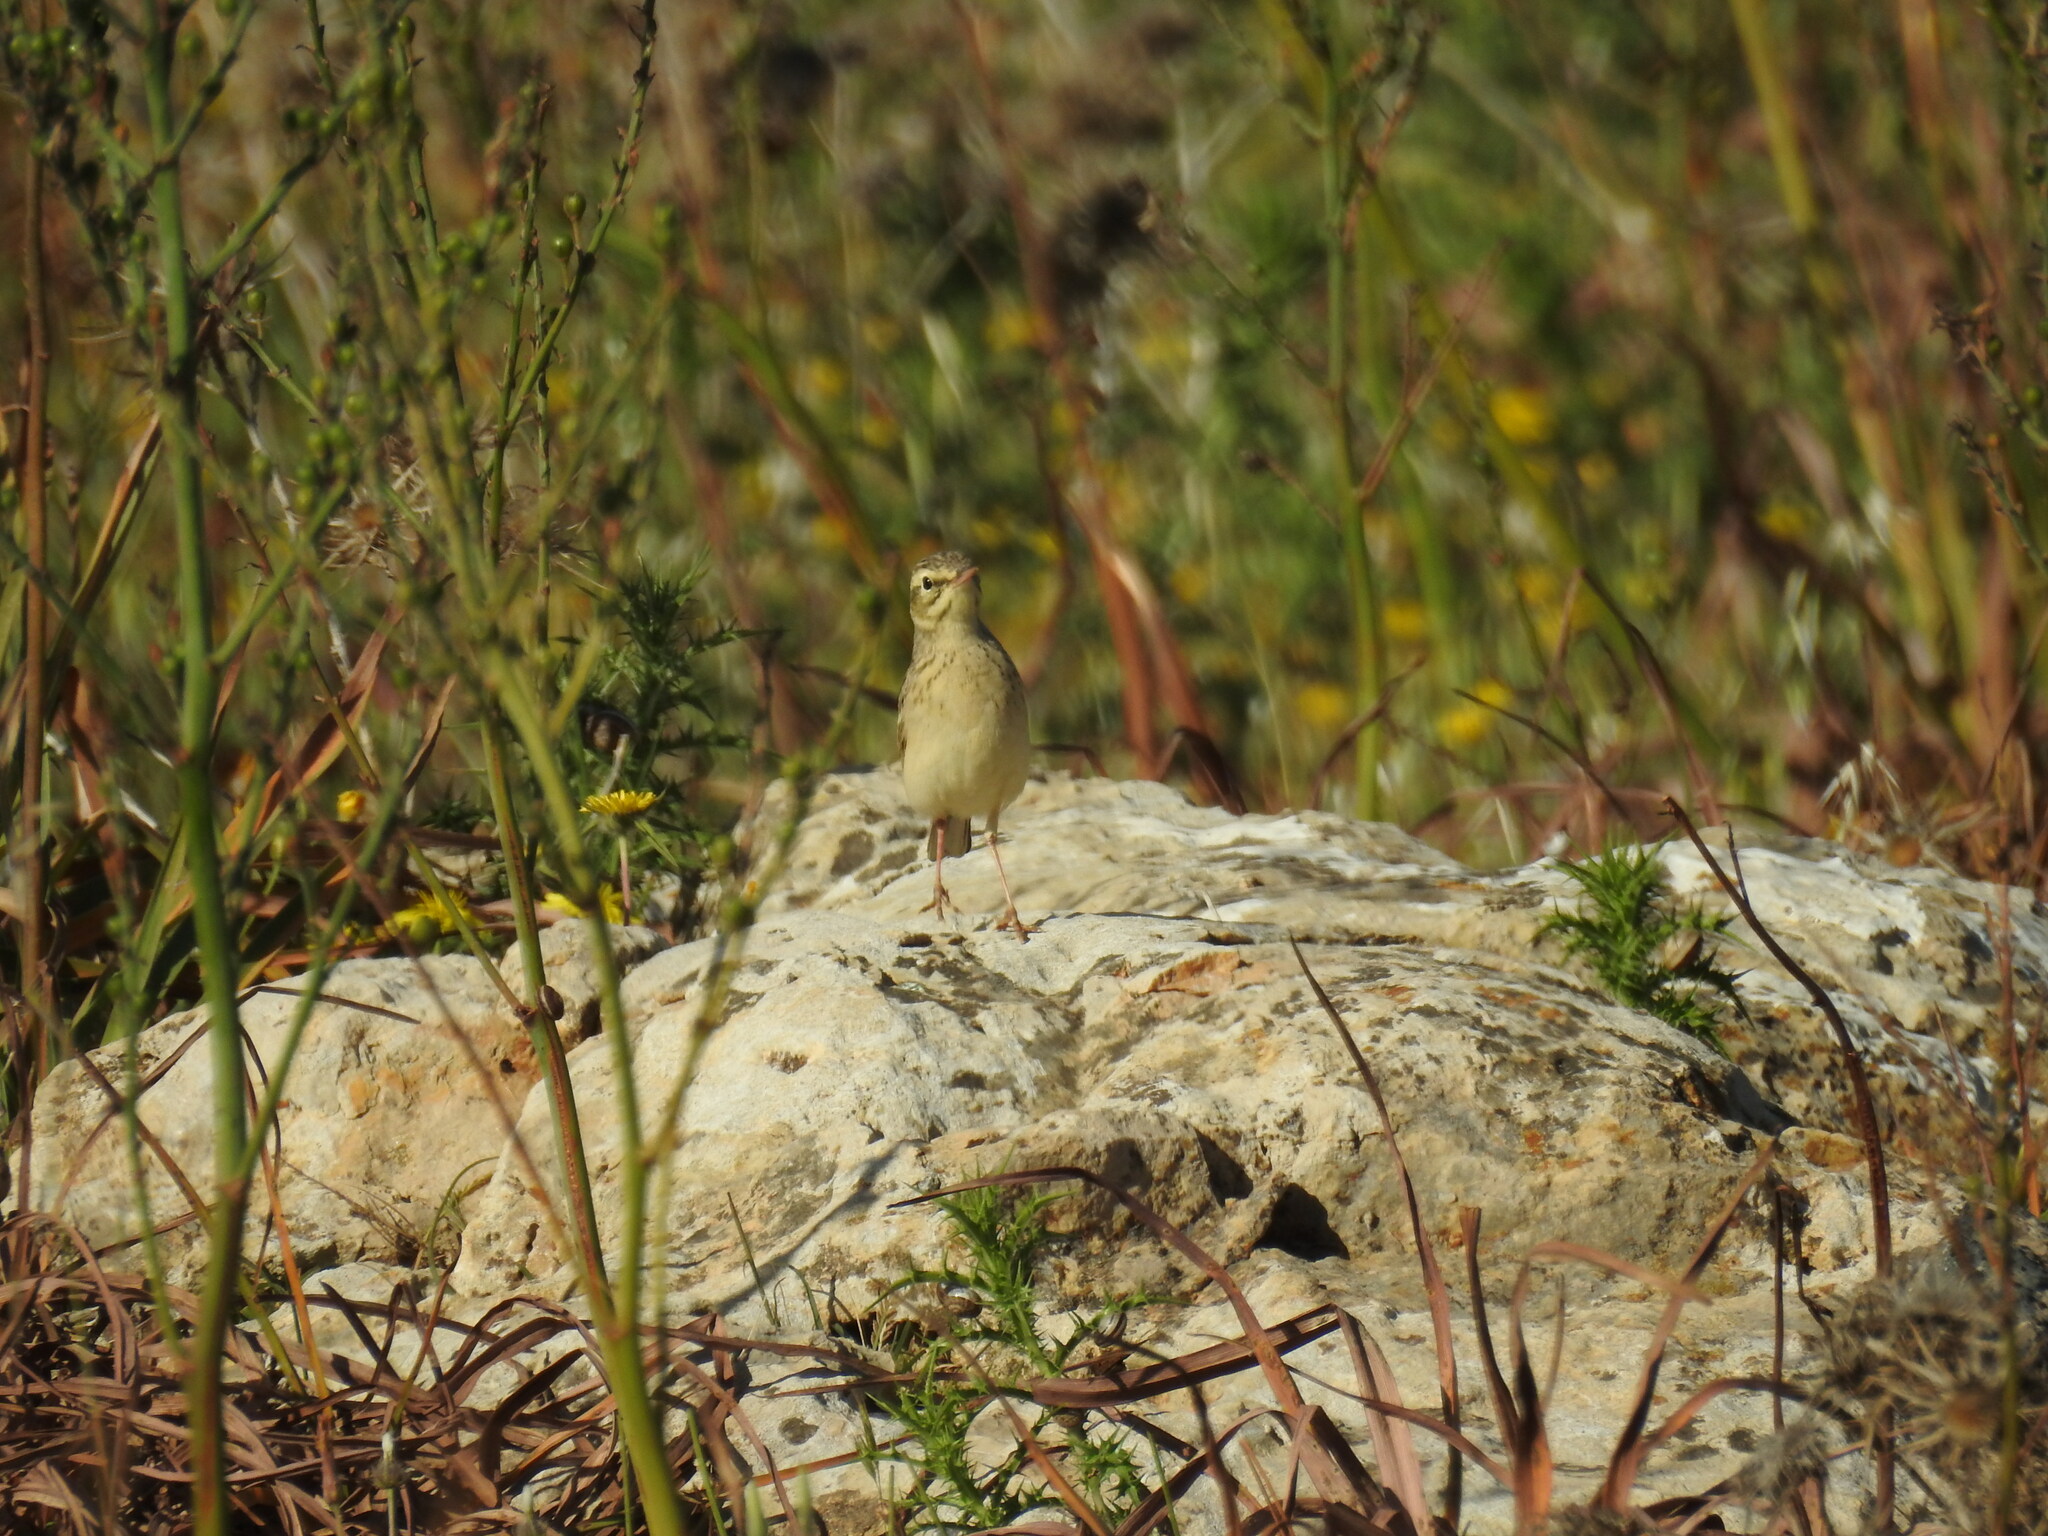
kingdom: Animalia
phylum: Chordata
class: Aves
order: Passeriformes
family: Motacillidae
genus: Anthus
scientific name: Anthus campestris
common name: Tawny pipit
